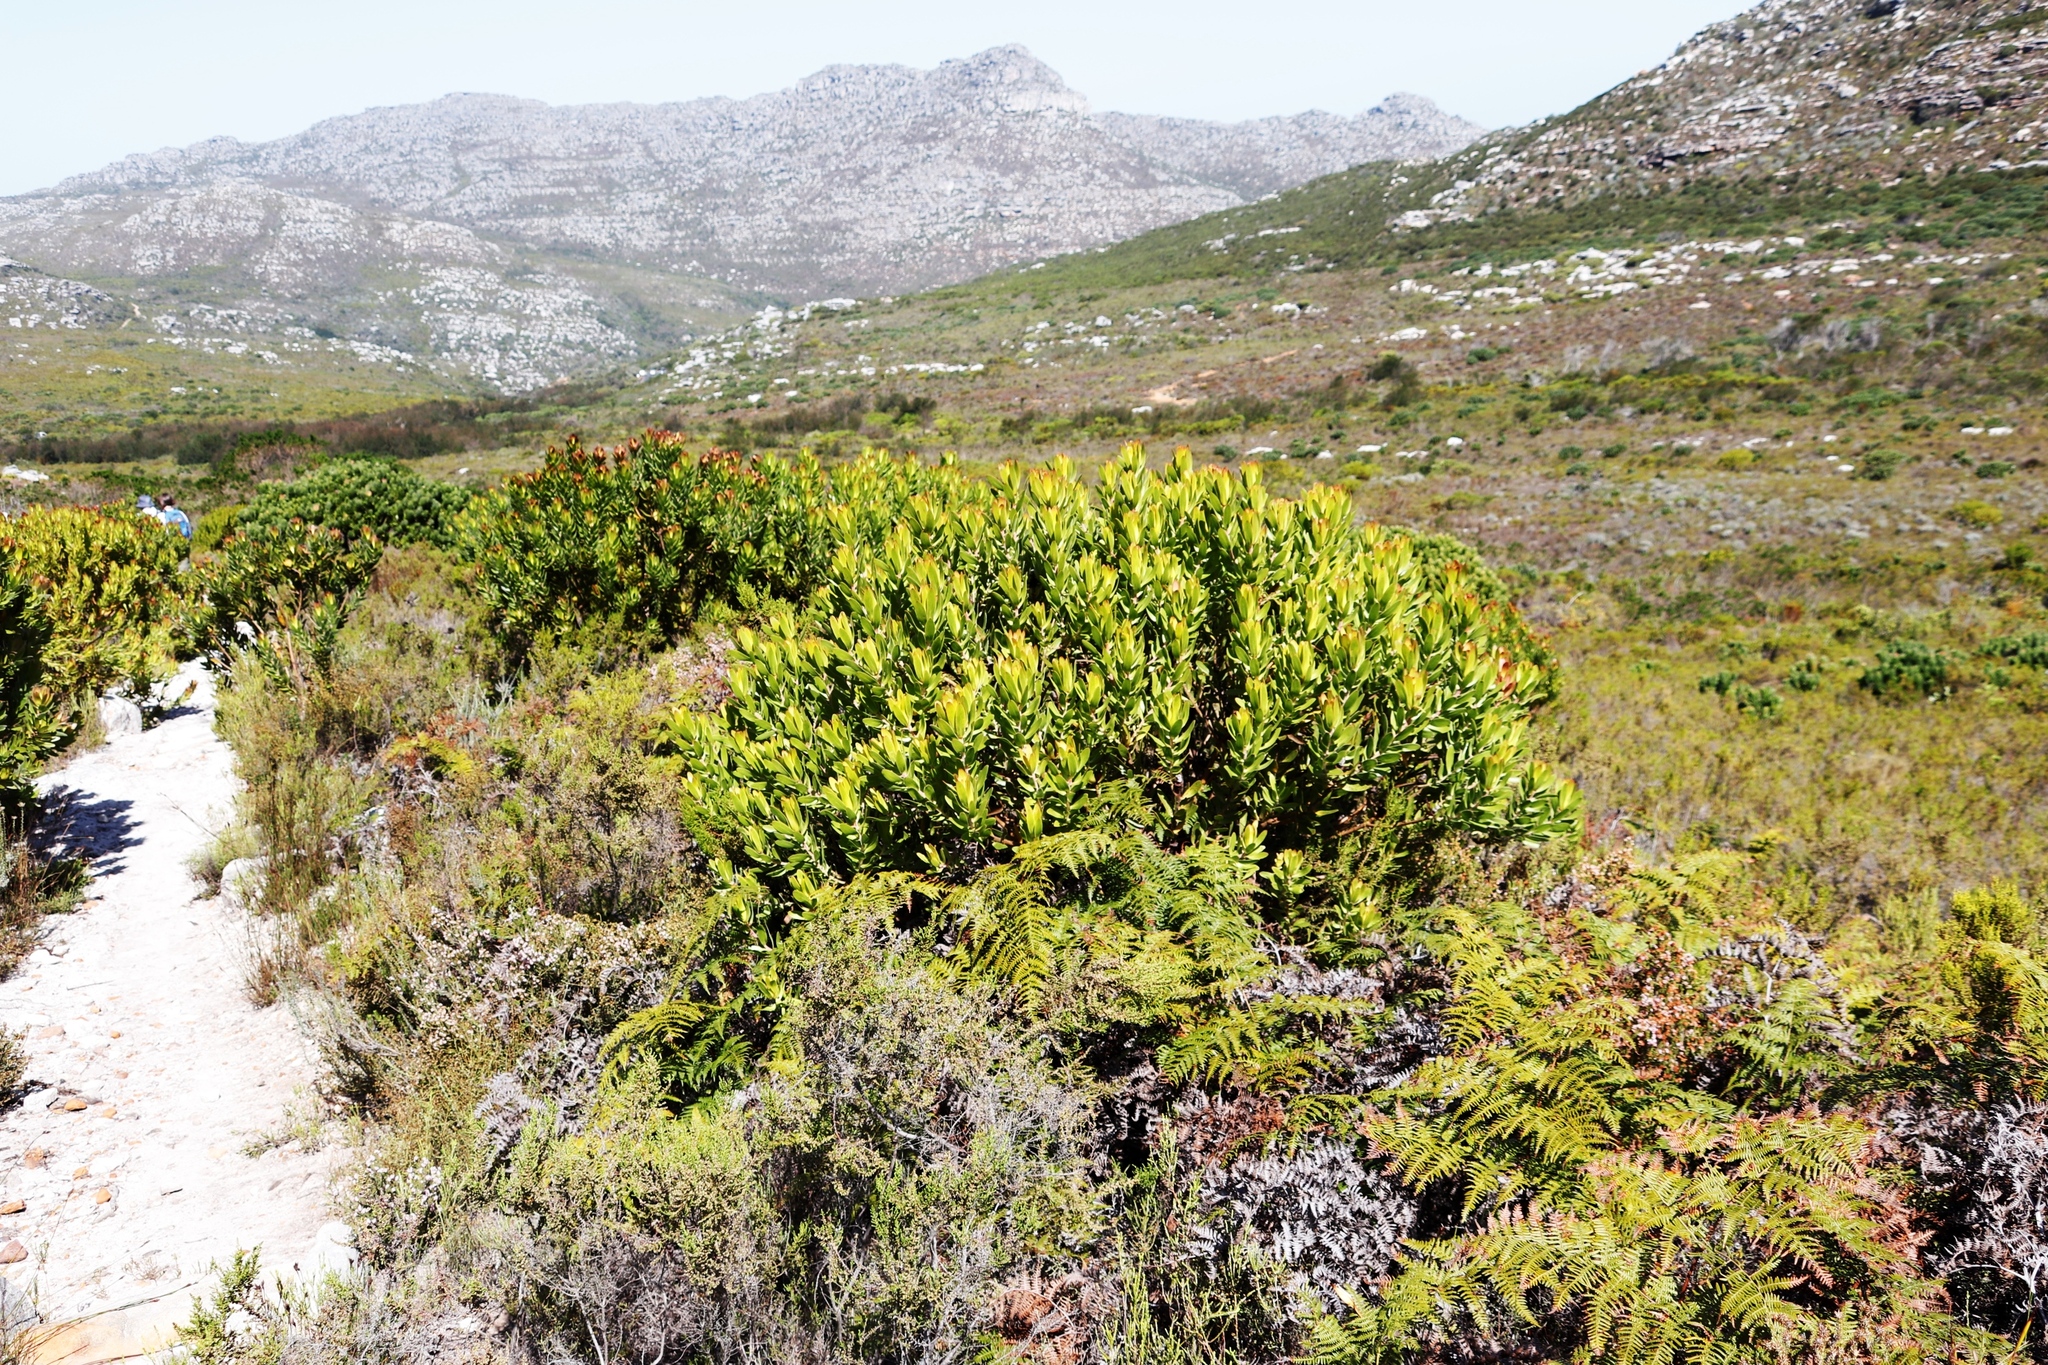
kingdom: Plantae
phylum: Tracheophyta
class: Polypodiopsida
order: Polypodiales
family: Dennstaedtiaceae
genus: Pteridium
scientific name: Pteridium aquilinum
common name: Bracken
